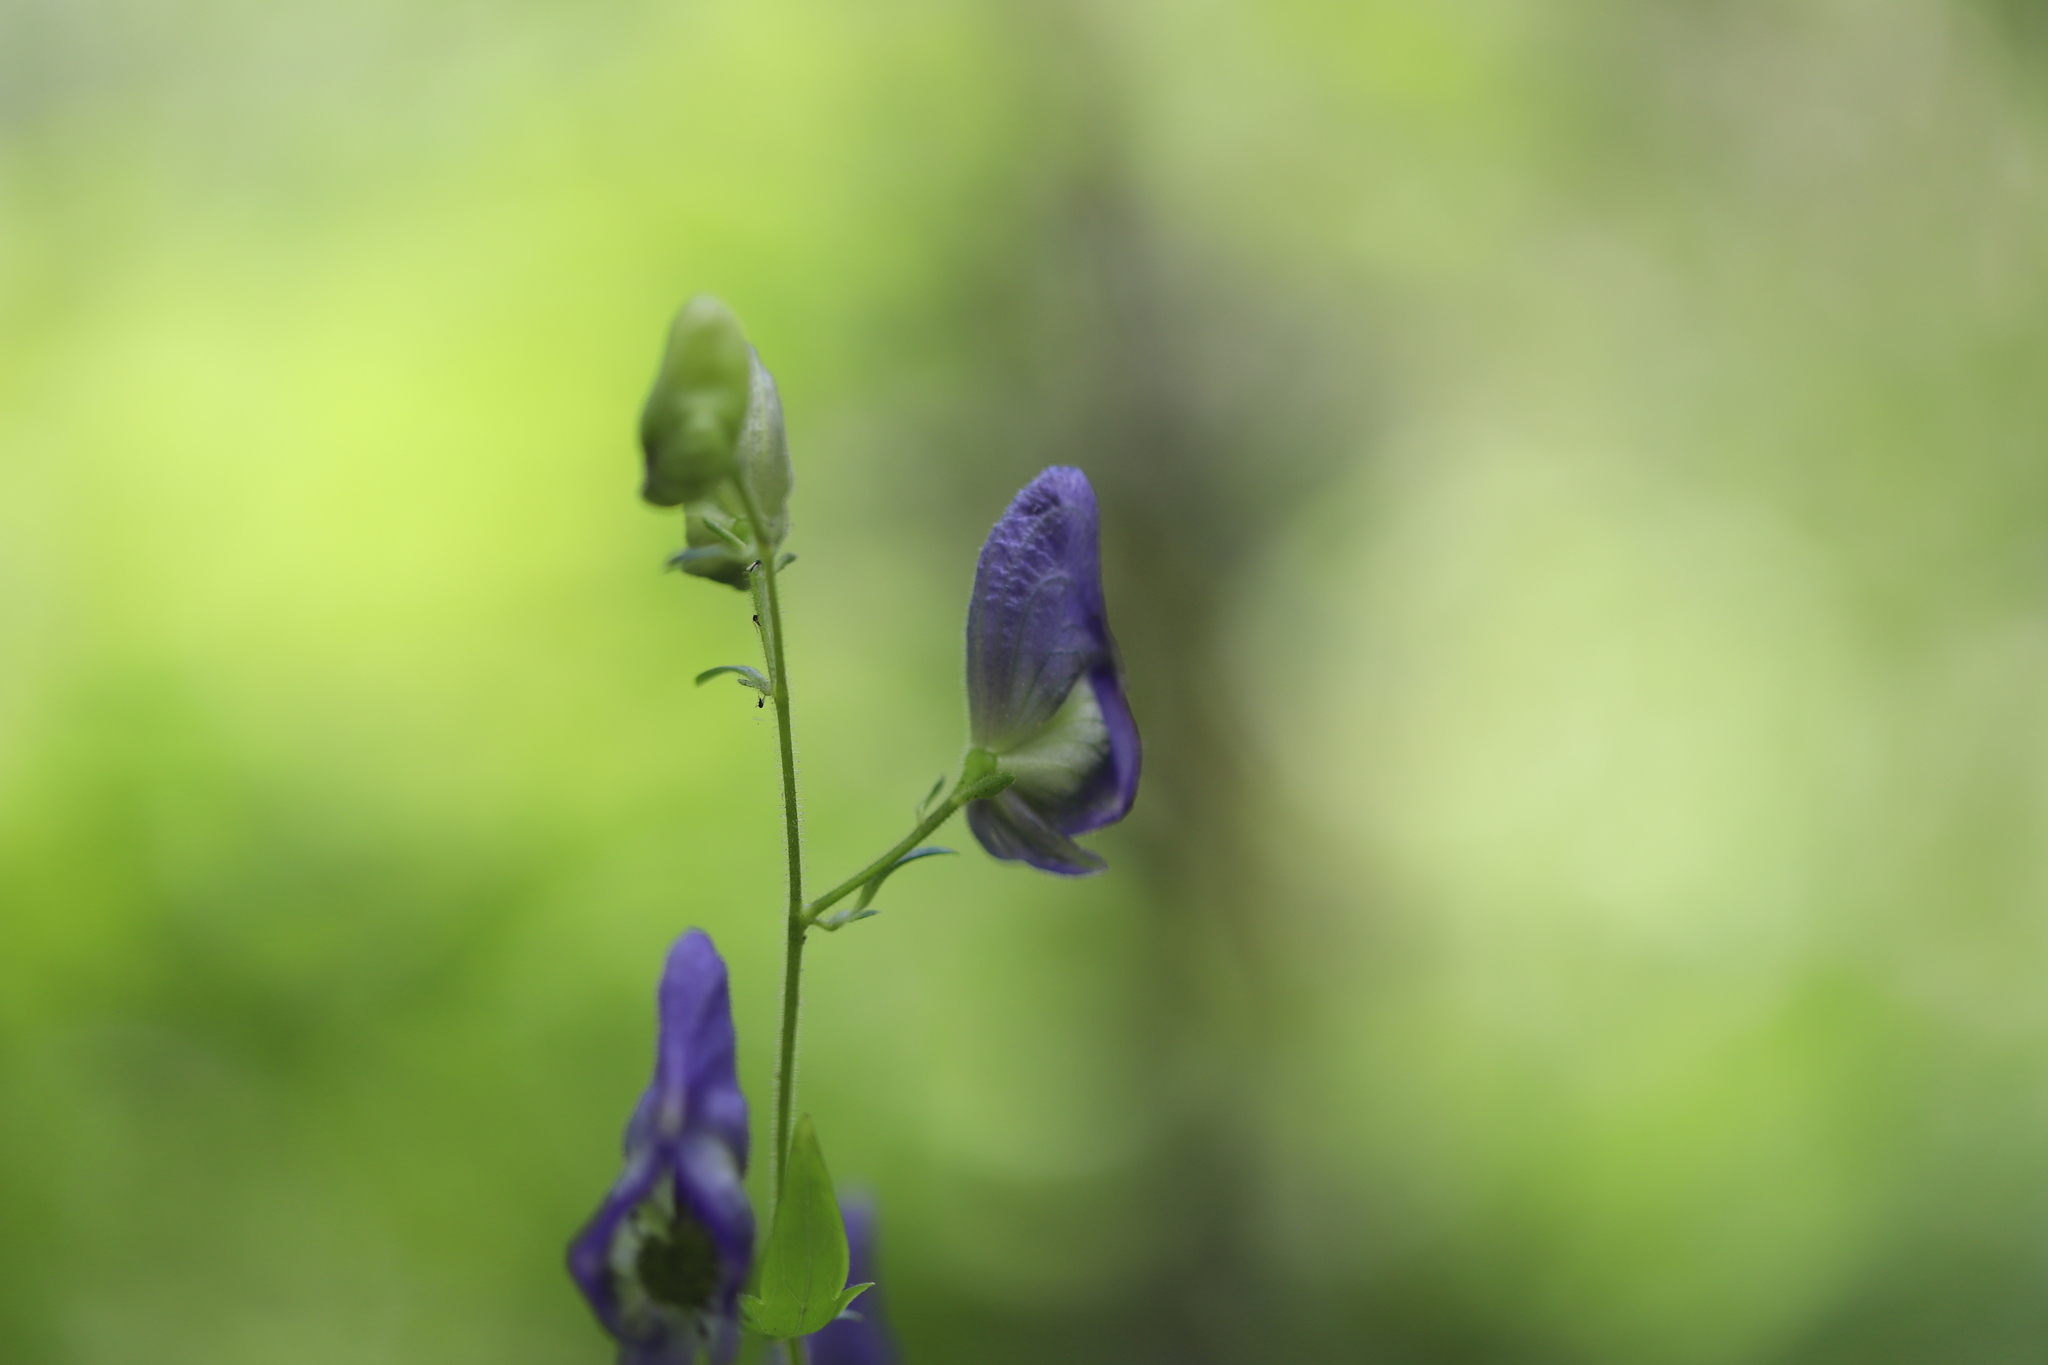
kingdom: Plantae
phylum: Tracheophyta
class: Magnoliopsida
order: Ranunculales
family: Ranunculaceae
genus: Aconitum
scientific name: Aconitum columbianum
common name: Columbia aconite
